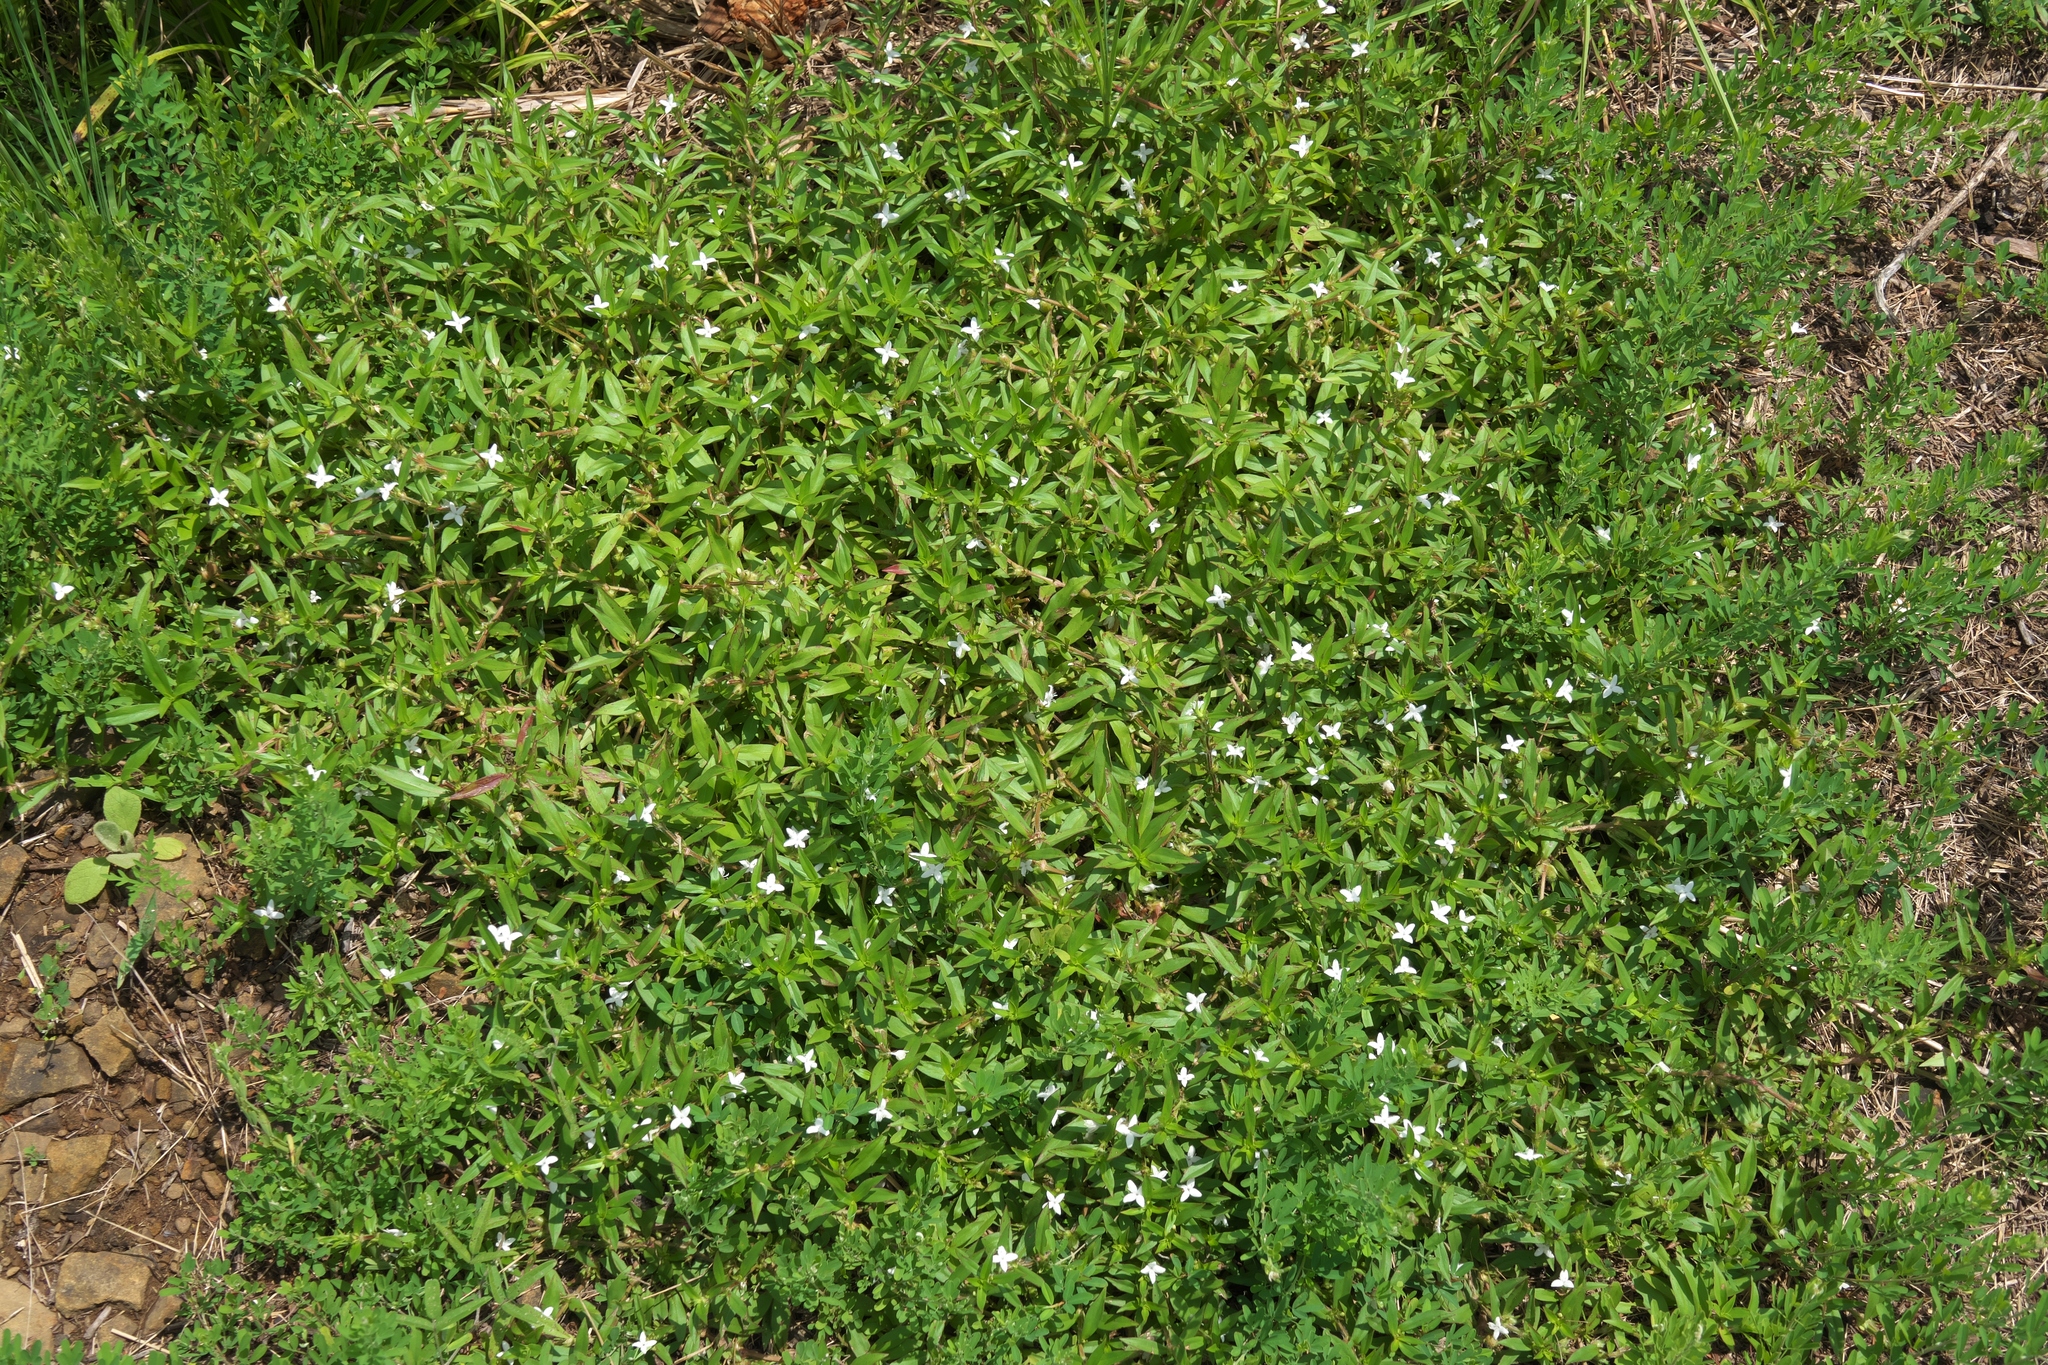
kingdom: Plantae
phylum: Tracheophyta
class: Magnoliopsida
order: Gentianales
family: Rubiaceae
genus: Diodia
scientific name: Diodia virginiana
